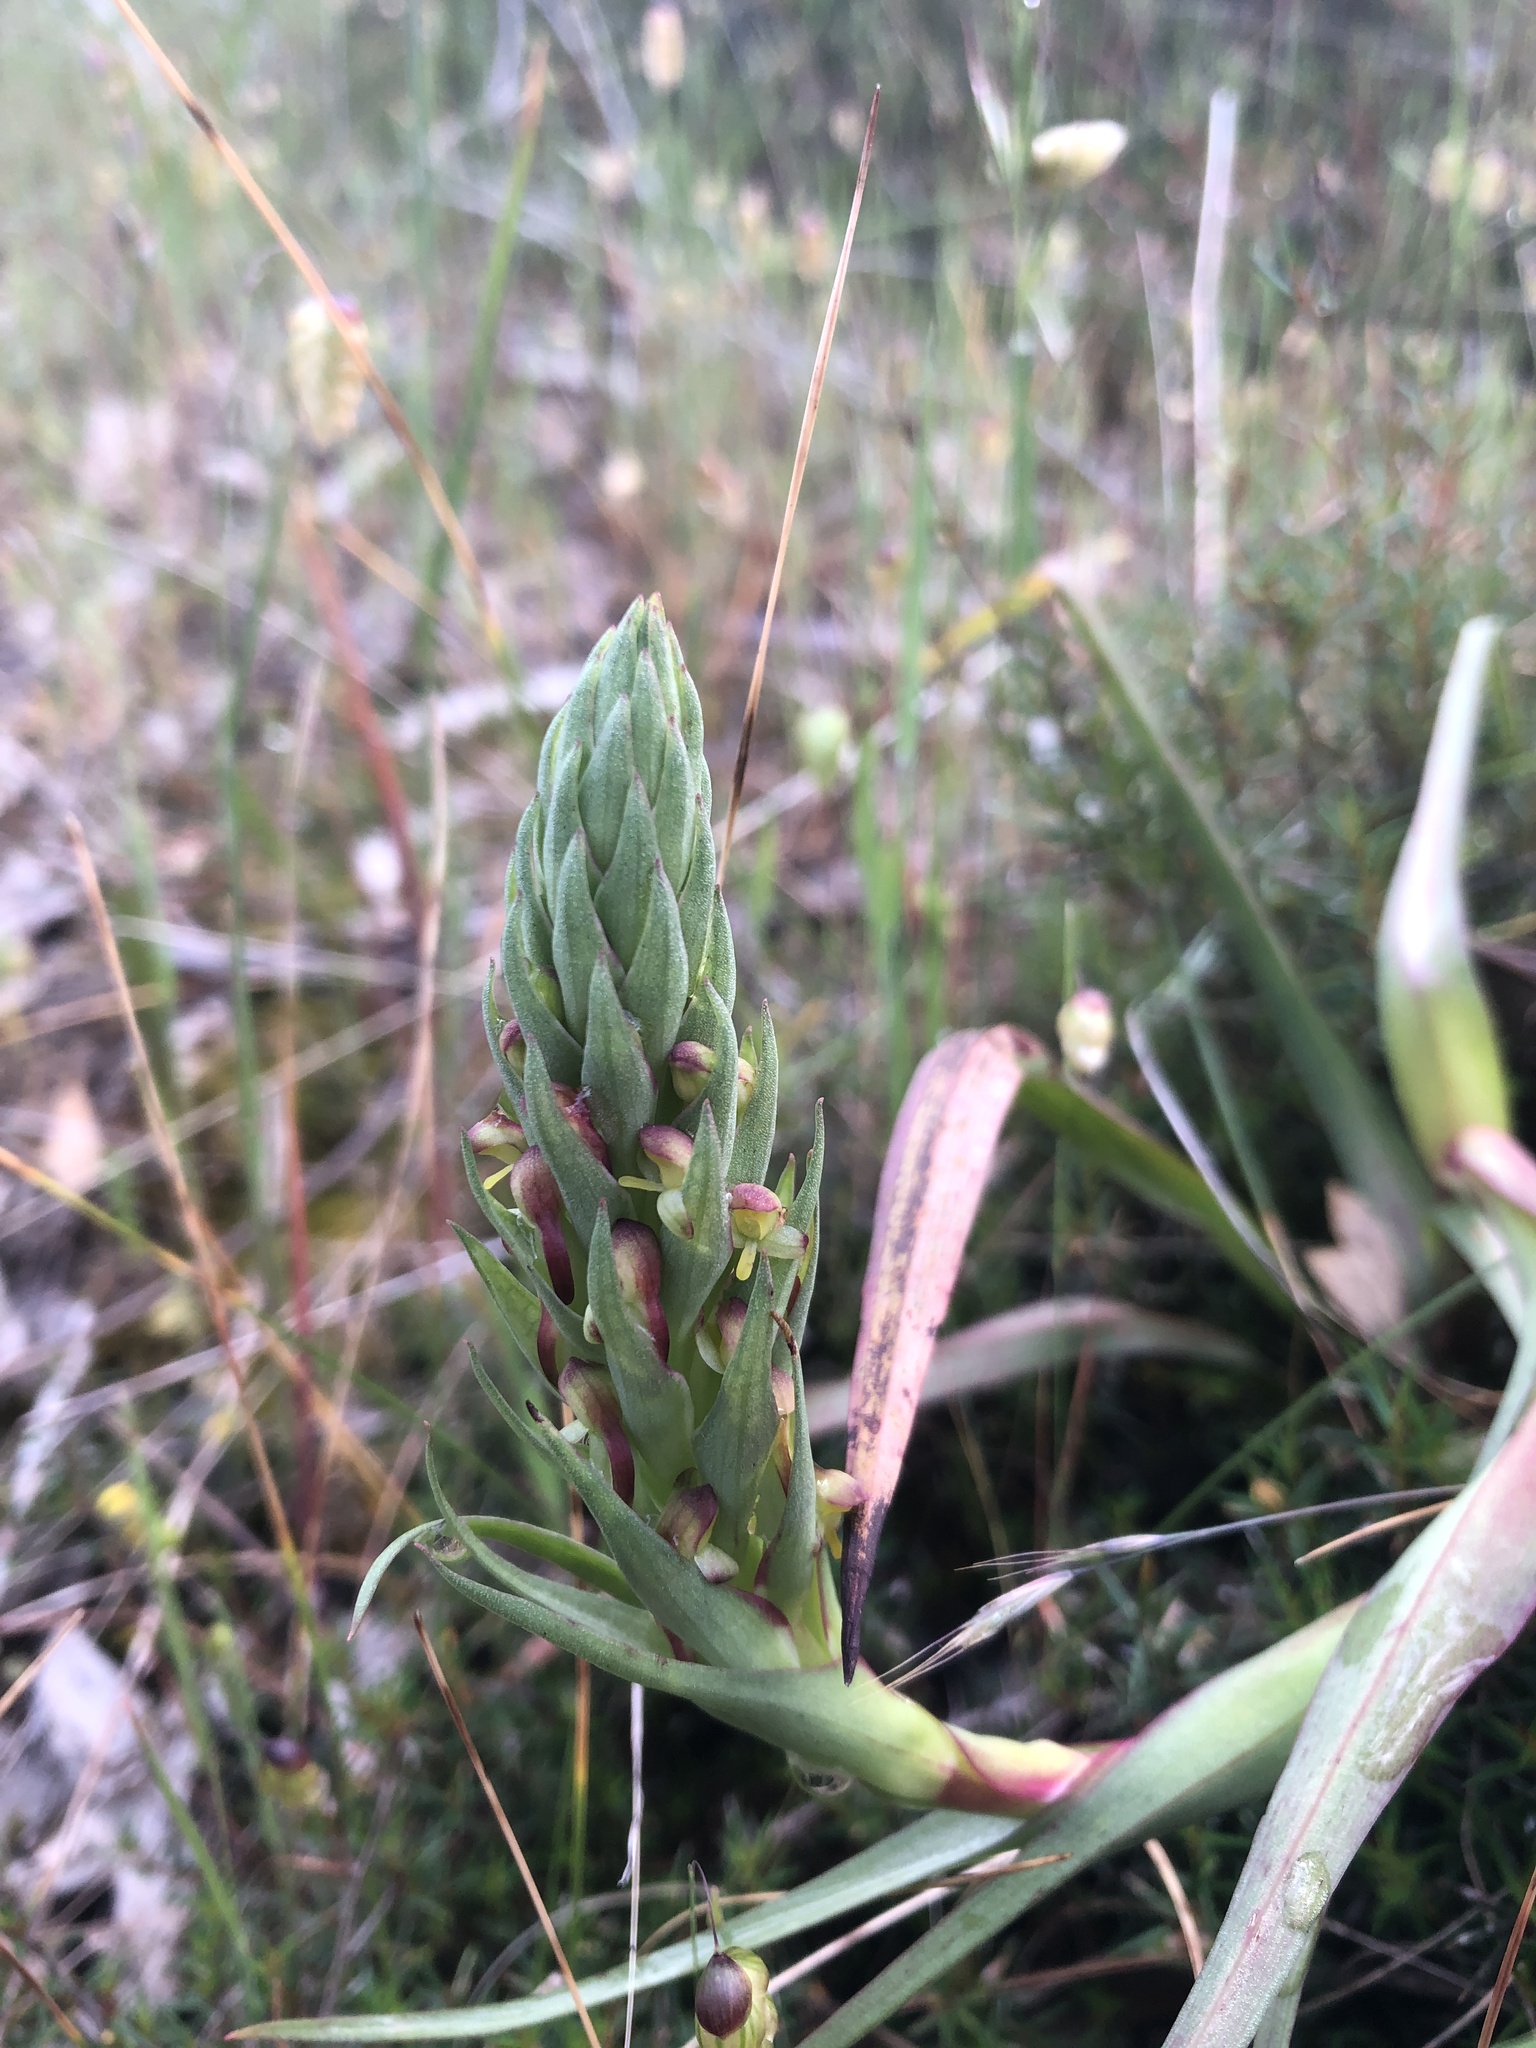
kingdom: Plantae
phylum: Tracheophyta
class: Liliopsida
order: Asparagales
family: Orchidaceae
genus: Disa
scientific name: Disa bracteata
